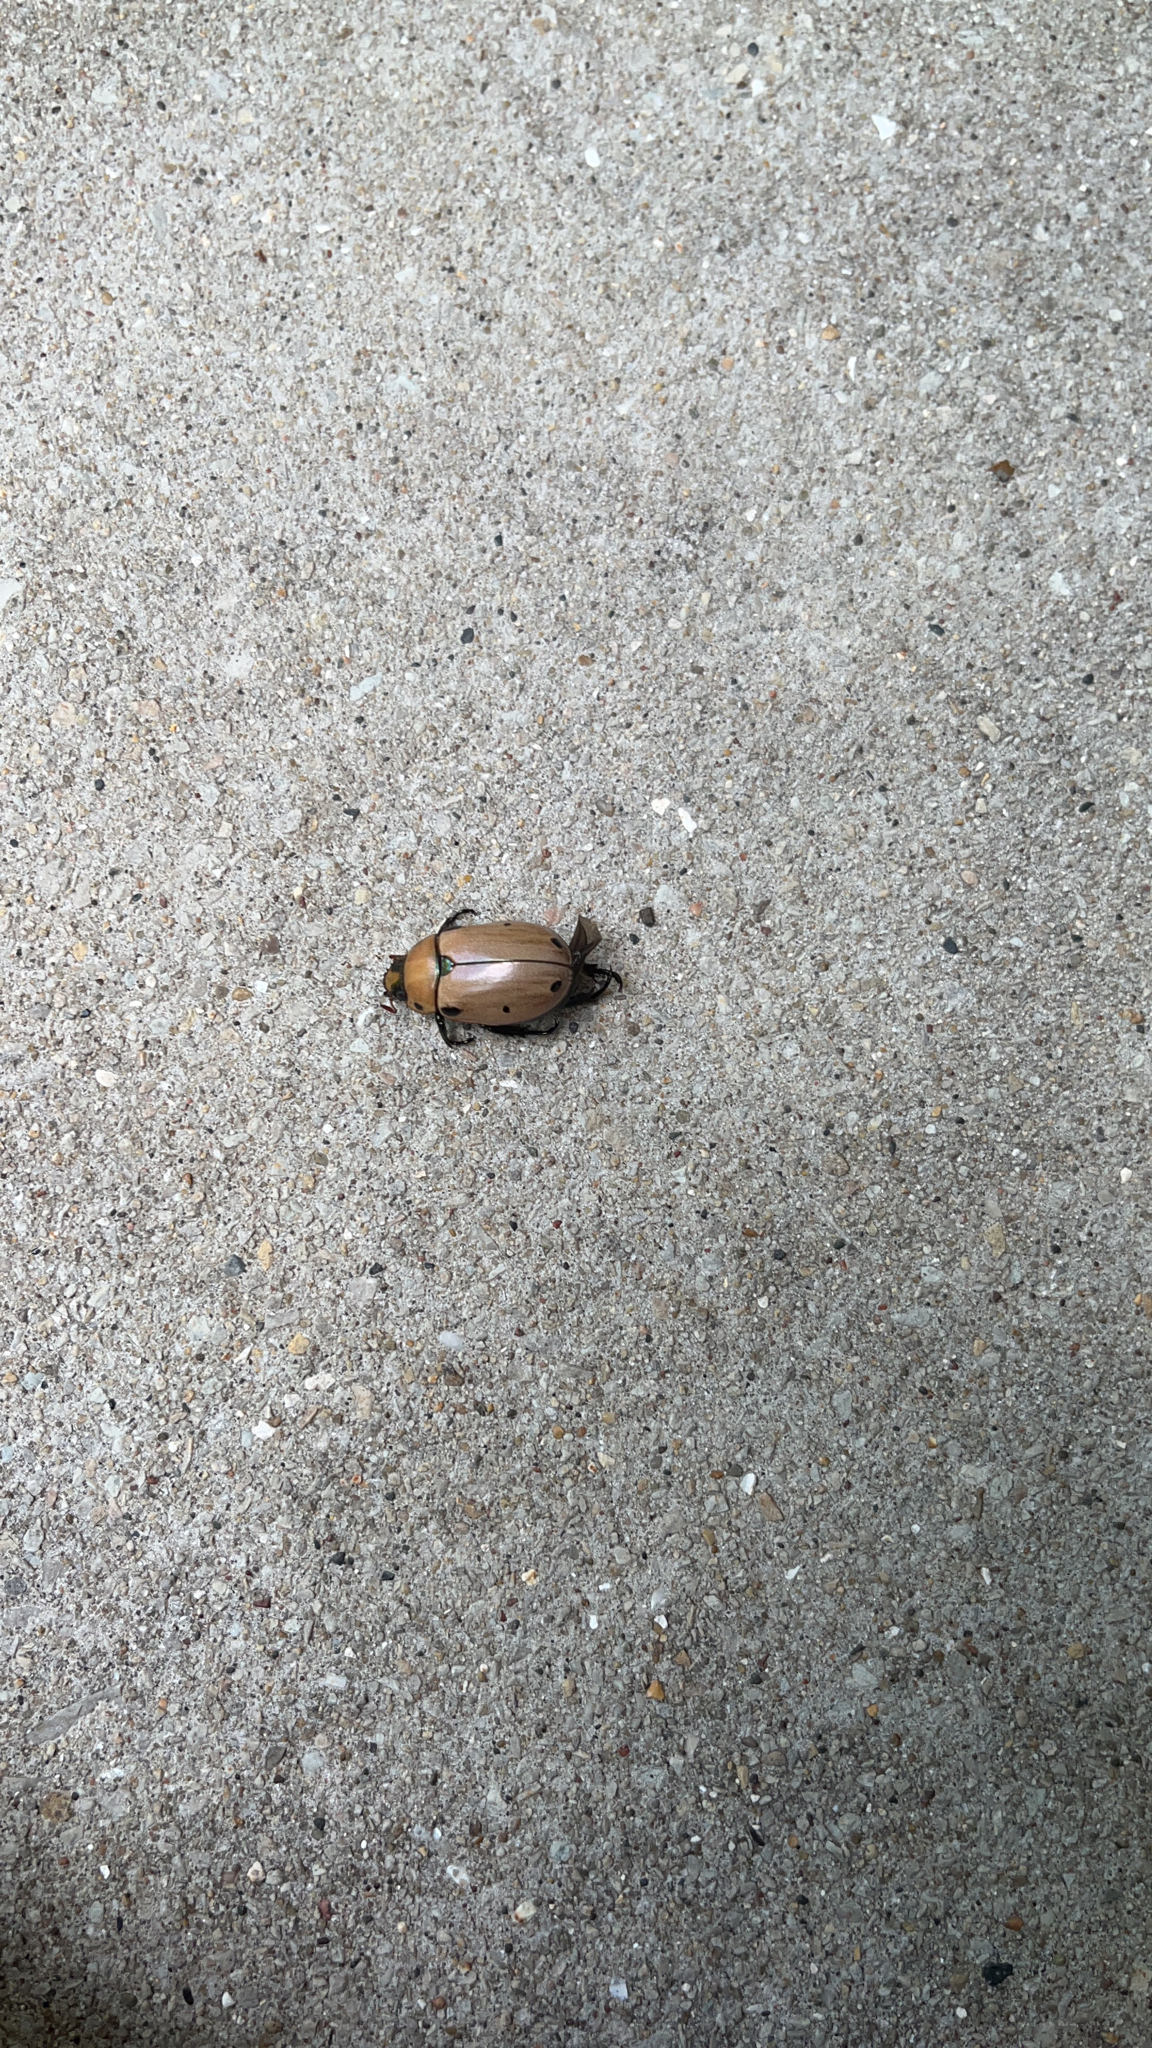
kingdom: Animalia
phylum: Arthropoda
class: Insecta
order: Coleoptera
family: Scarabaeidae
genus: Pelidnota
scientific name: Pelidnota punctata
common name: Grapevine beetle
